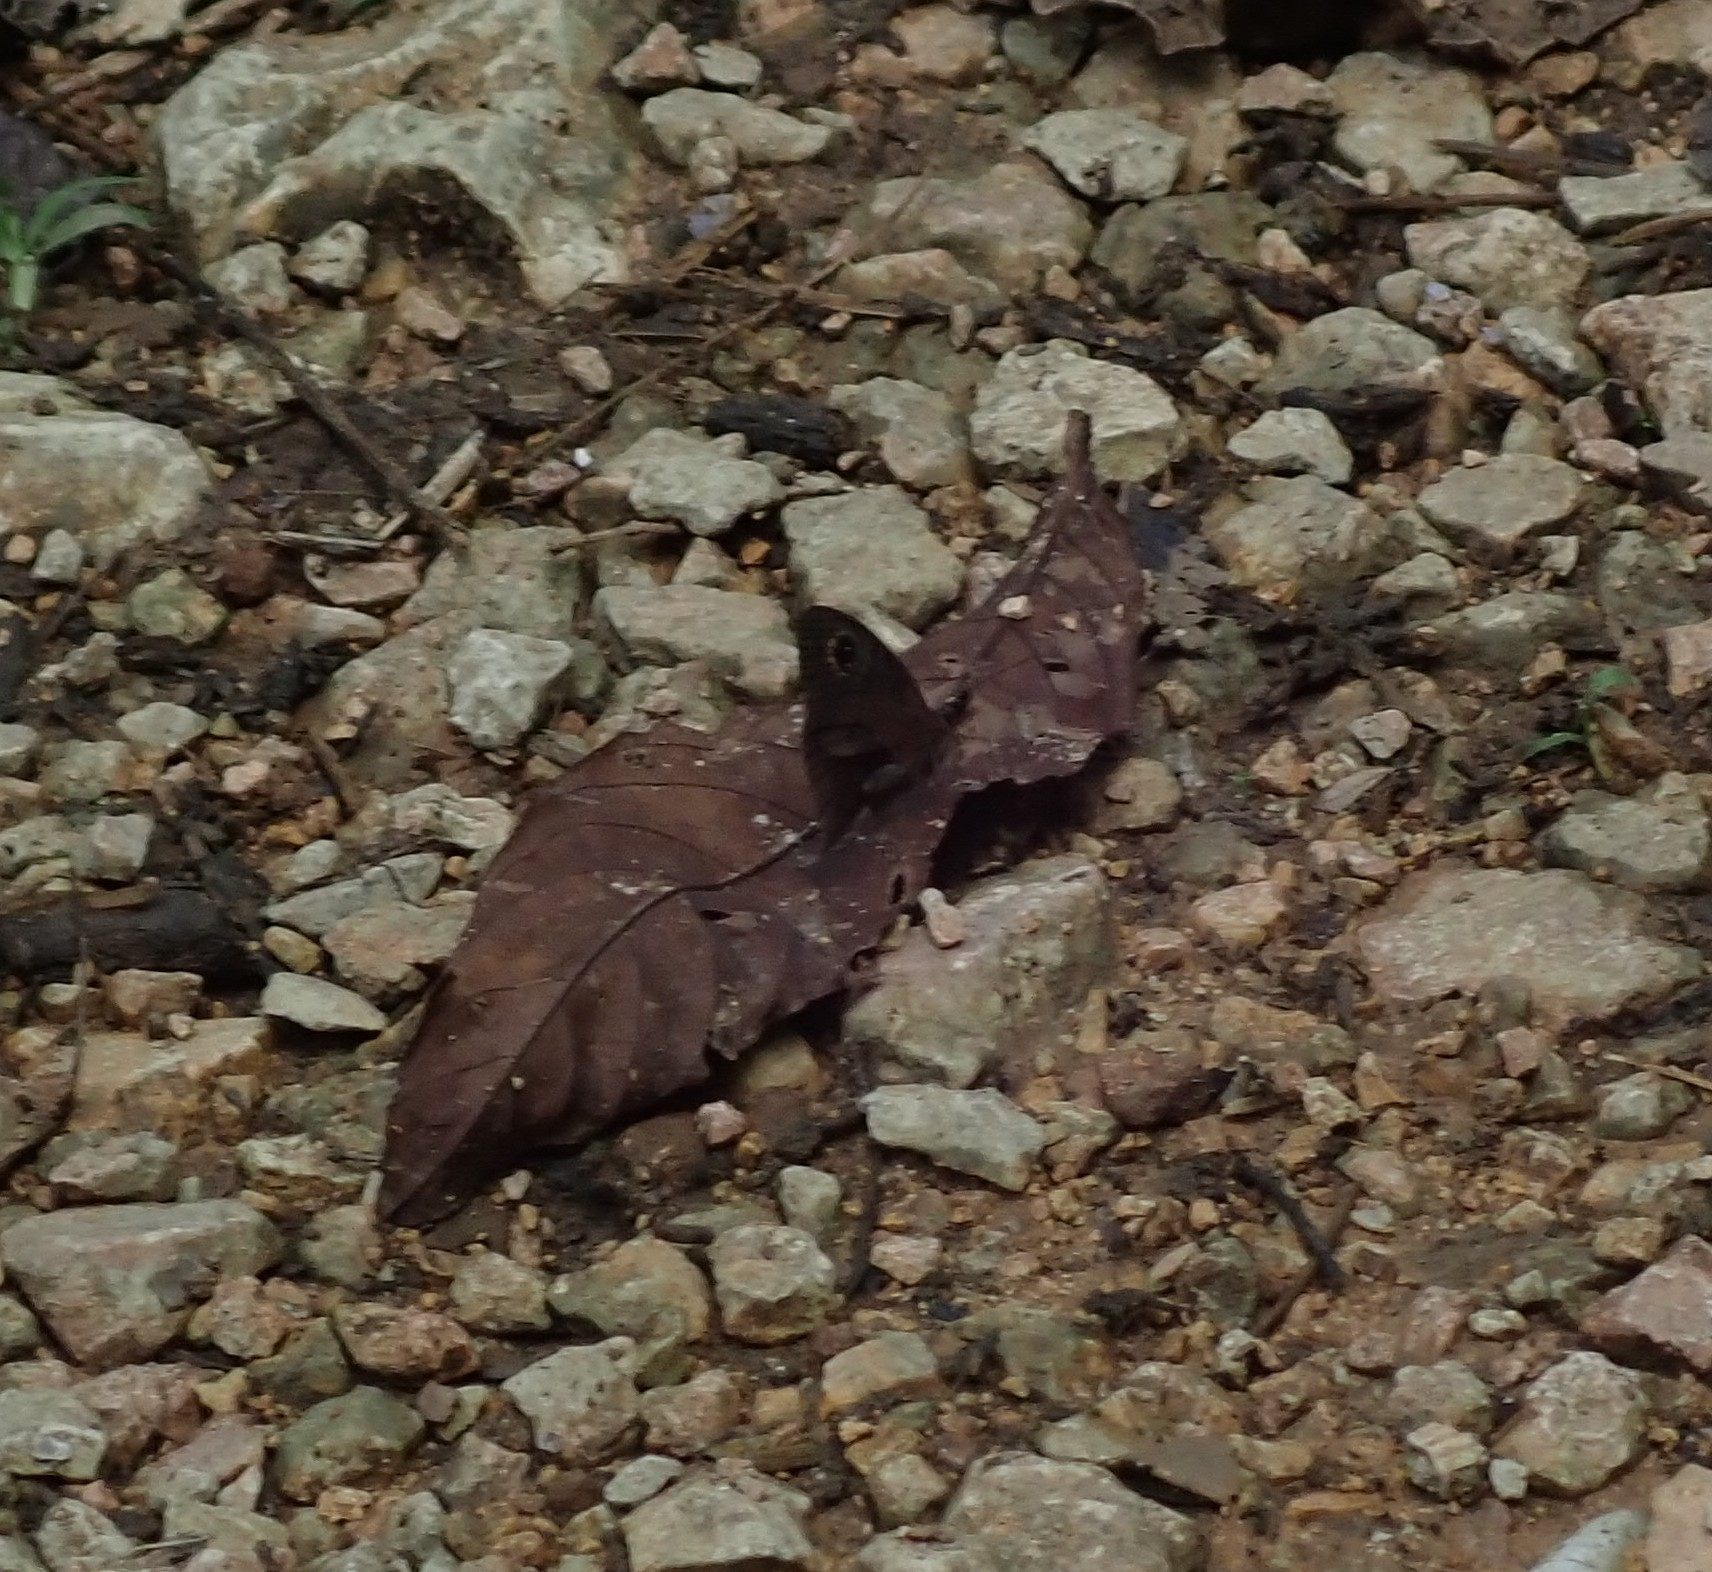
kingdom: Animalia
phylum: Arthropoda
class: Insecta
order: Lepidoptera
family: Nymphalidae
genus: Calisto
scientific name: Calisto nubila
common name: Puerto rican calisto
